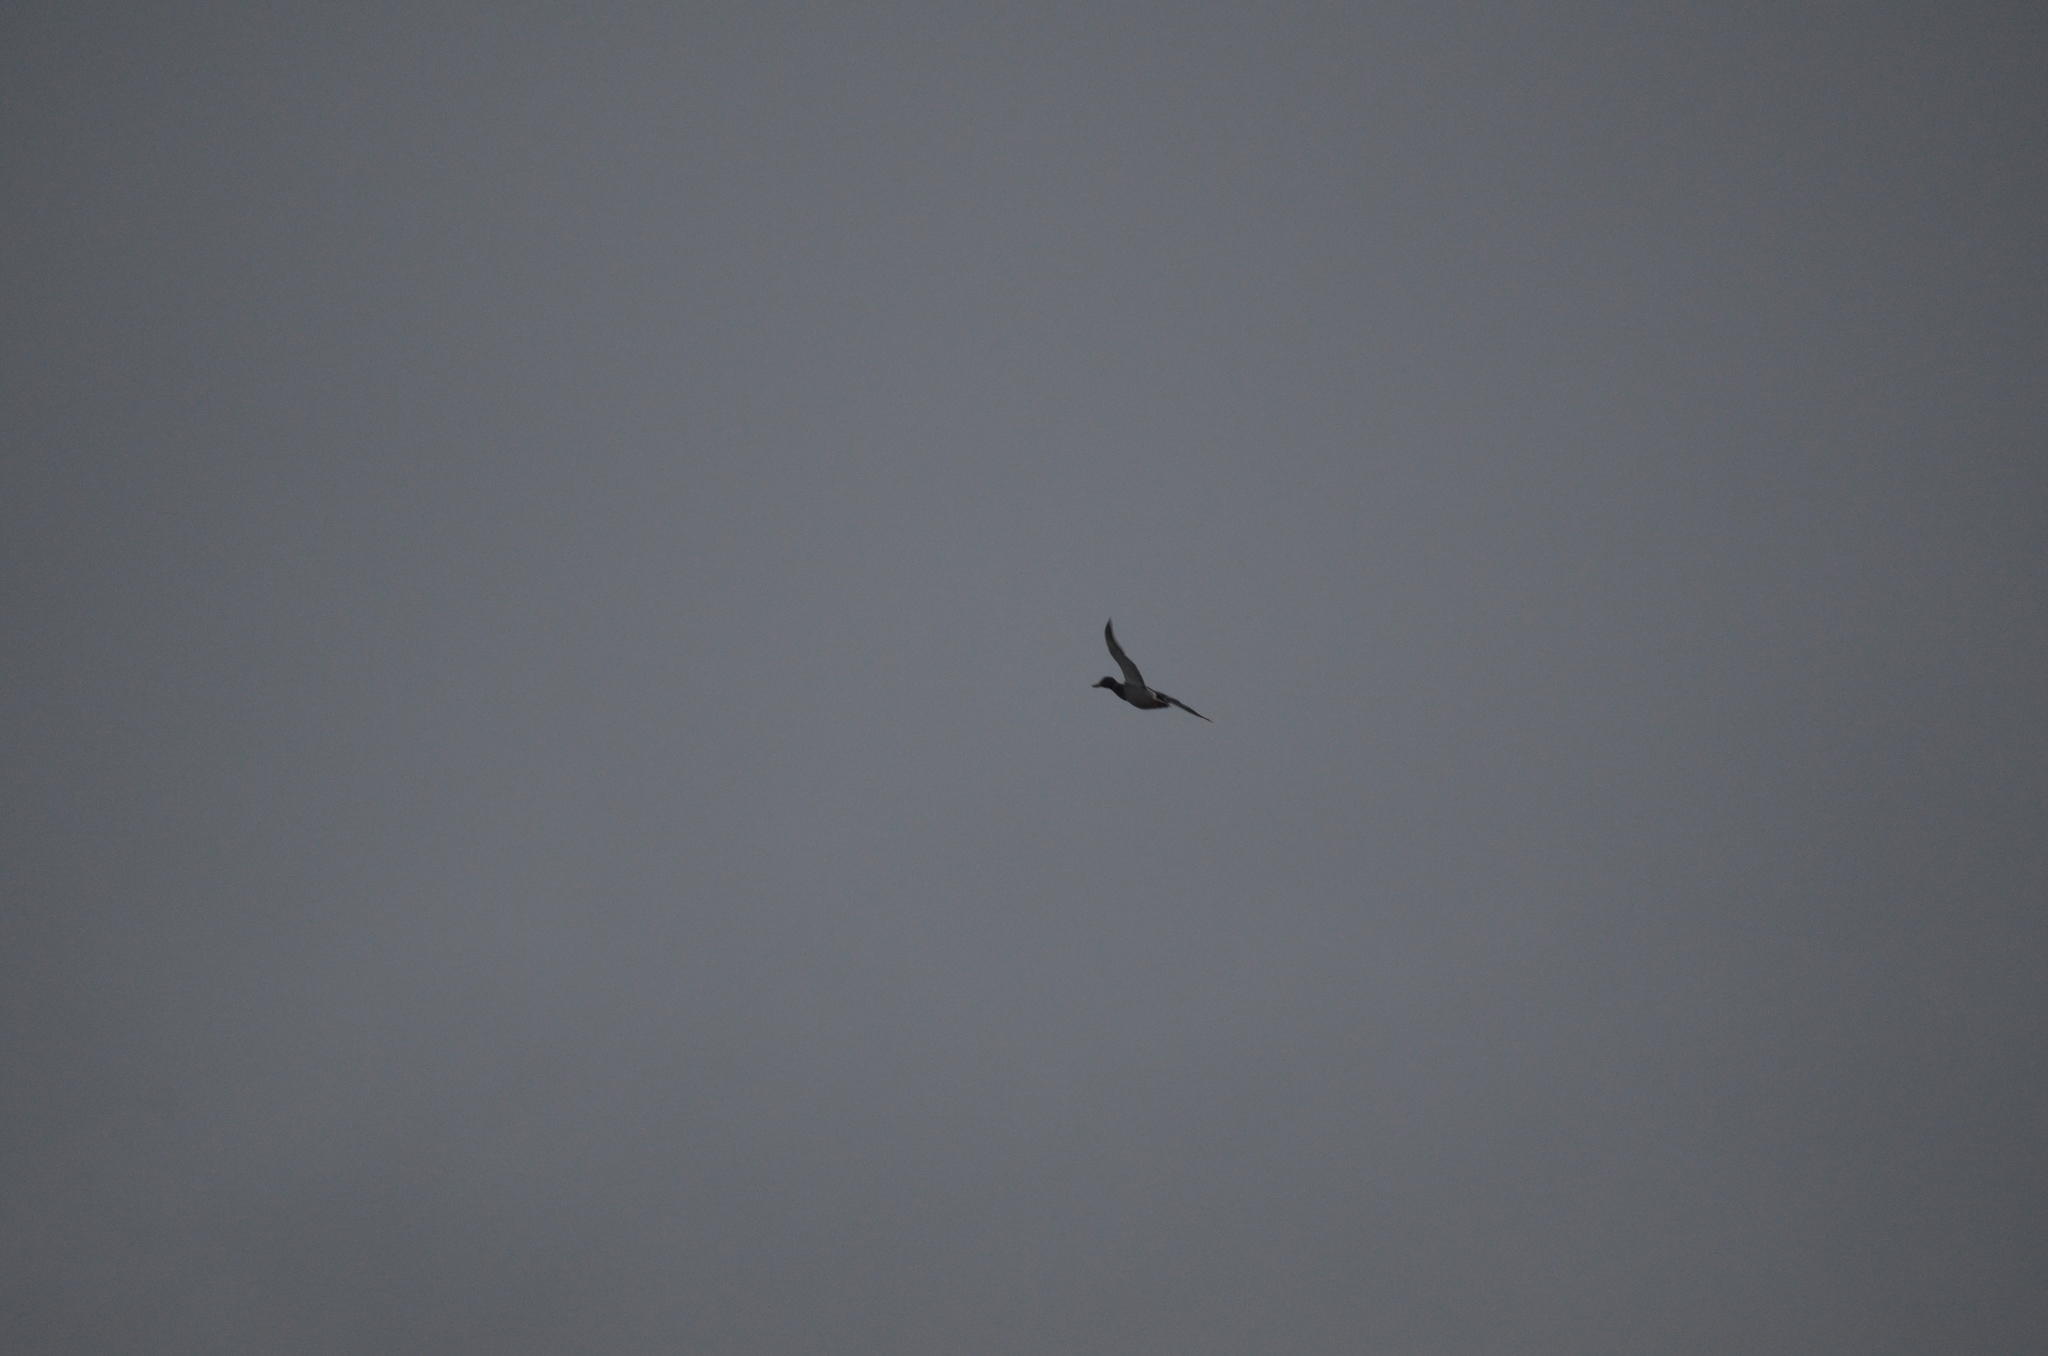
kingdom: Animalia
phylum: Chordata
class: Aves
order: Anseriformes
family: Anatidae
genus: Anas
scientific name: Anas platyrhynchos
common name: Mallard
